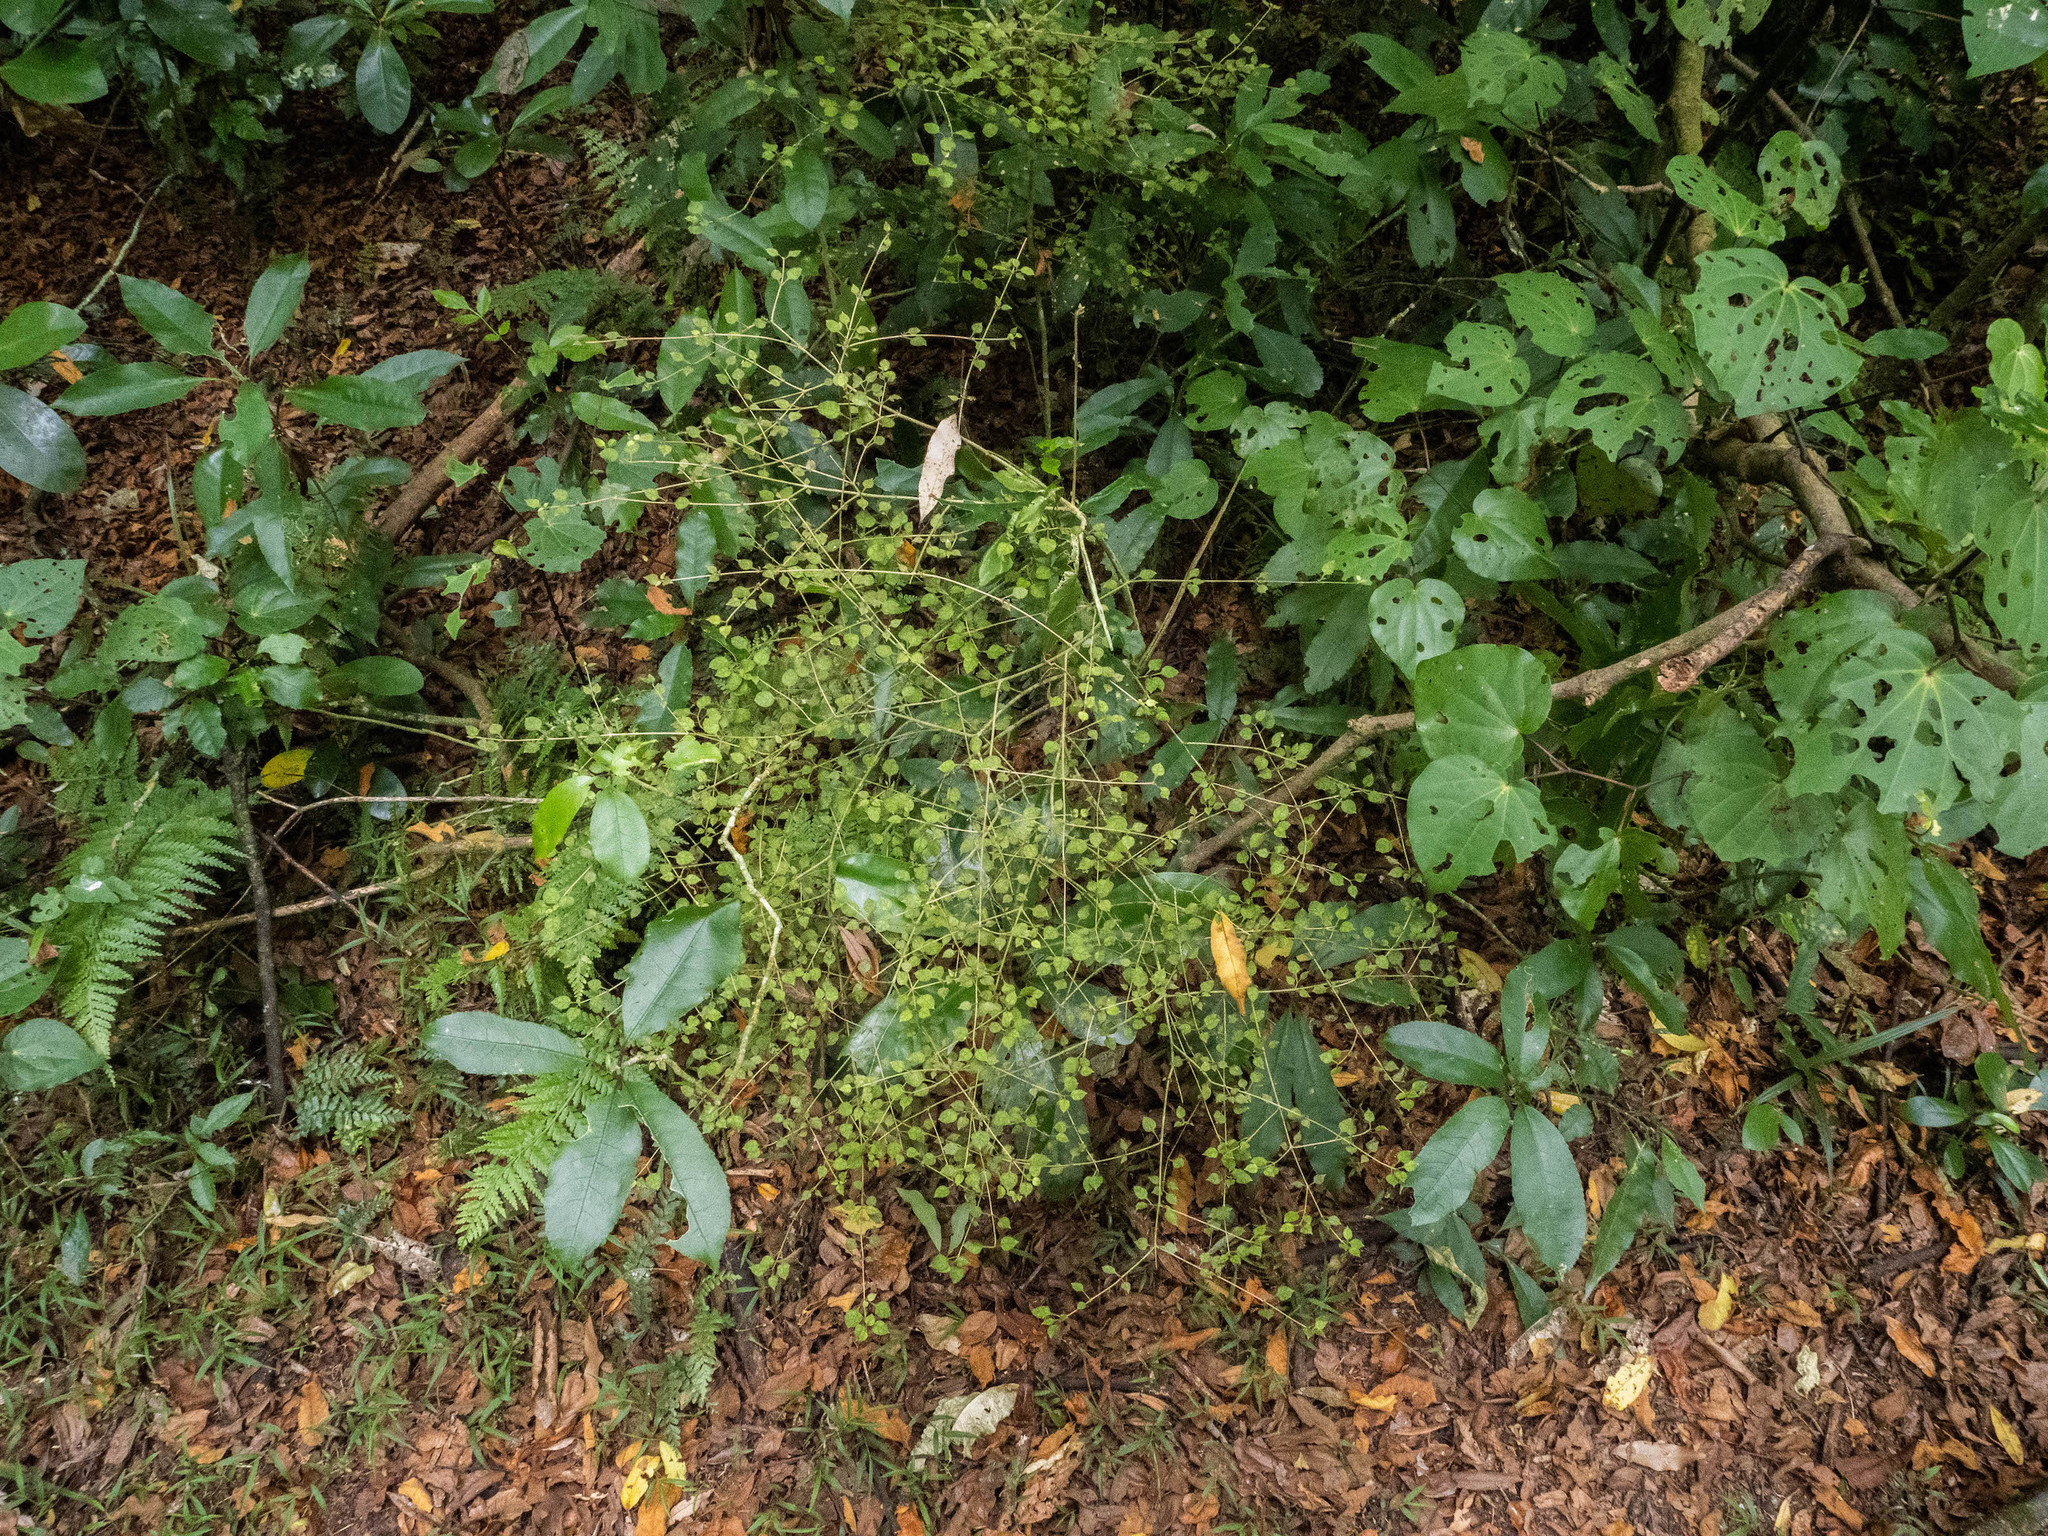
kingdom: Plantae
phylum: Tracheophyta
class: Magnoliopsida
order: Gentianales
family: Rubiaceae
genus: Coprosma
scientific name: Coprosma areolata
